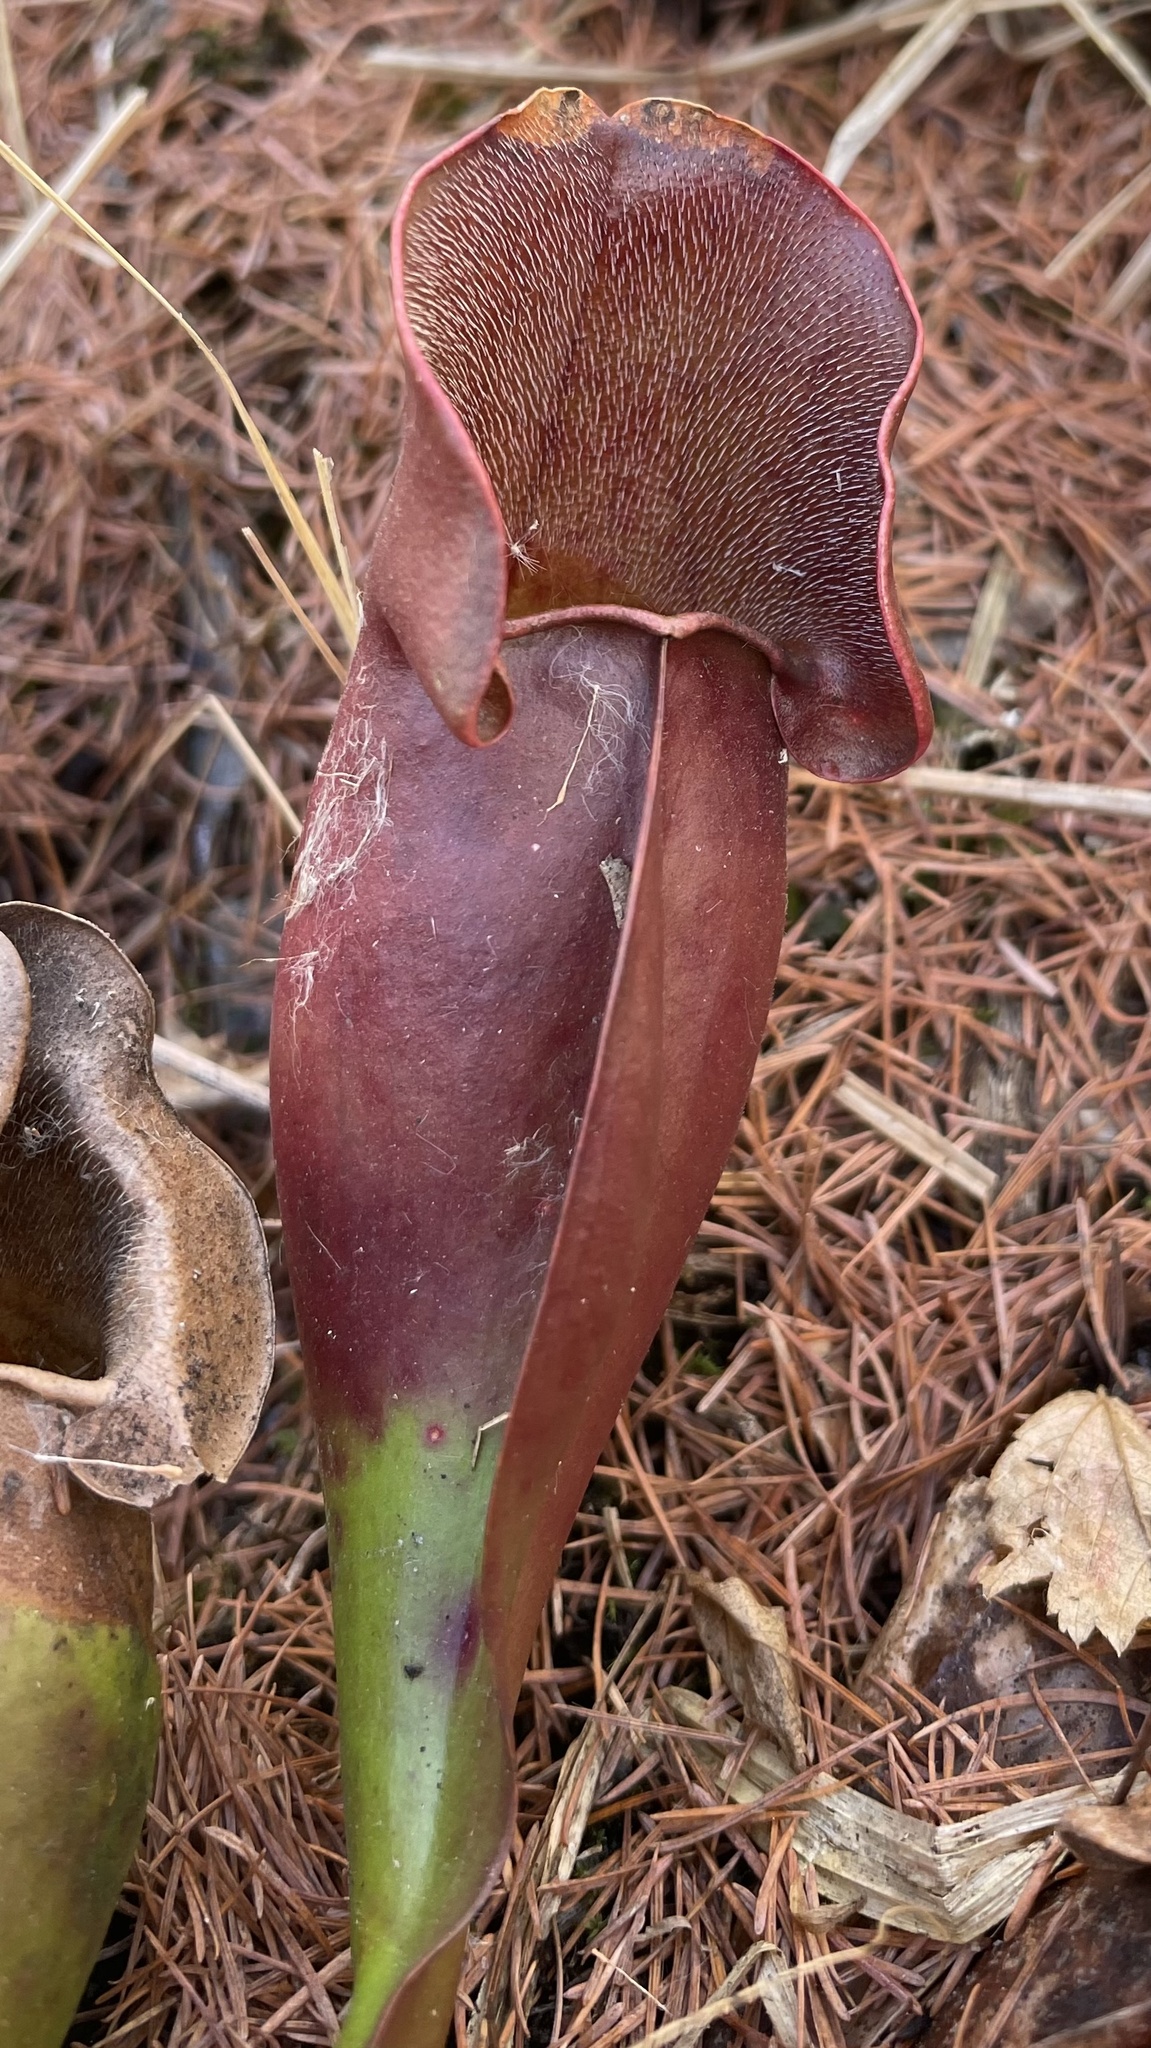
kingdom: Plantae
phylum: Tracheophyta
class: Magnoliopsida
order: Ericales
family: Sarraceniaceae
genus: Sarracenia
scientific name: Sarracenia purpurea
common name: Pitcherplant
